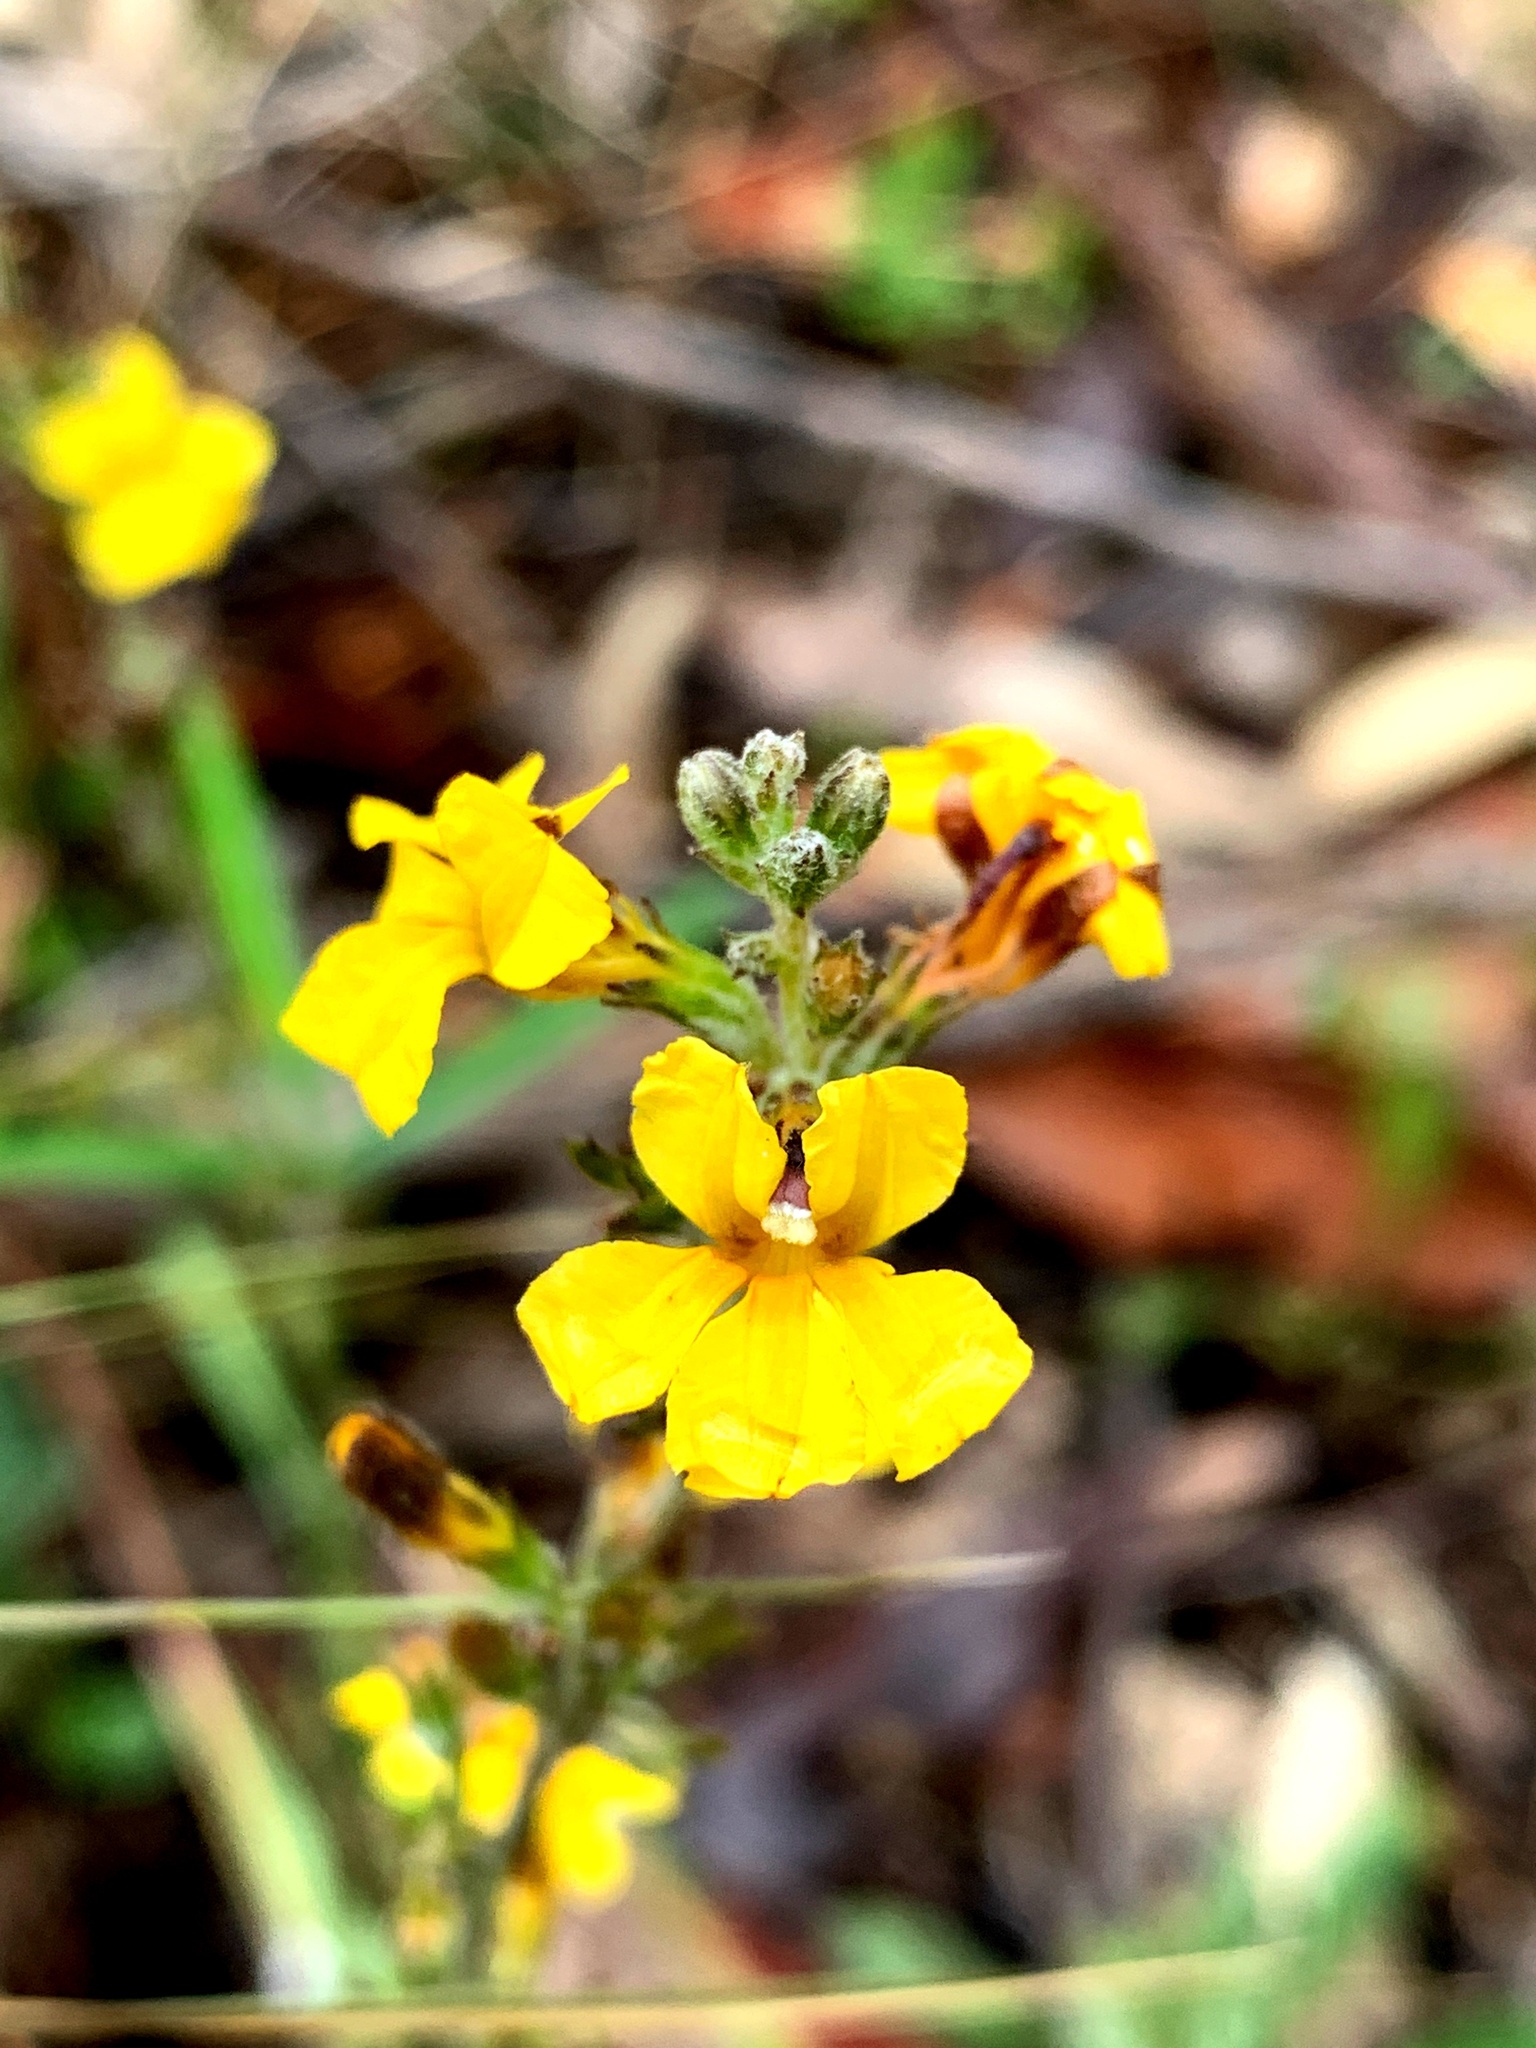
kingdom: Plantae
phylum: Tracheophyta
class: Magnoliopsida
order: Asterales
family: Goodeniaceae
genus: Goodenia
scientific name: Goodenia bellidifolia
